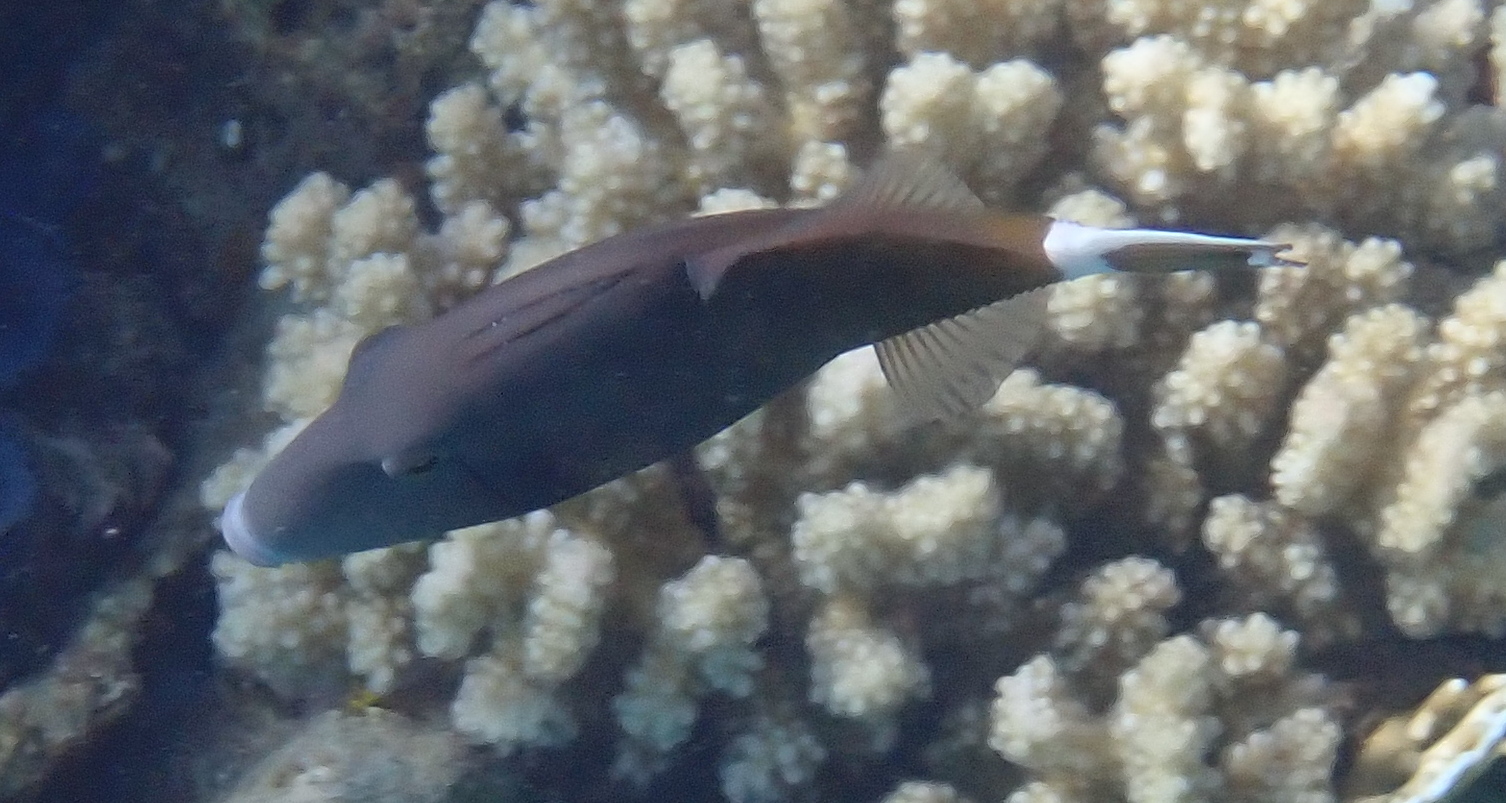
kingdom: Animalia
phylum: Chordata
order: Tetraodontiformes
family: Balistidae
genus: Sufflamen
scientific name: Sufflamen albicaudatum
